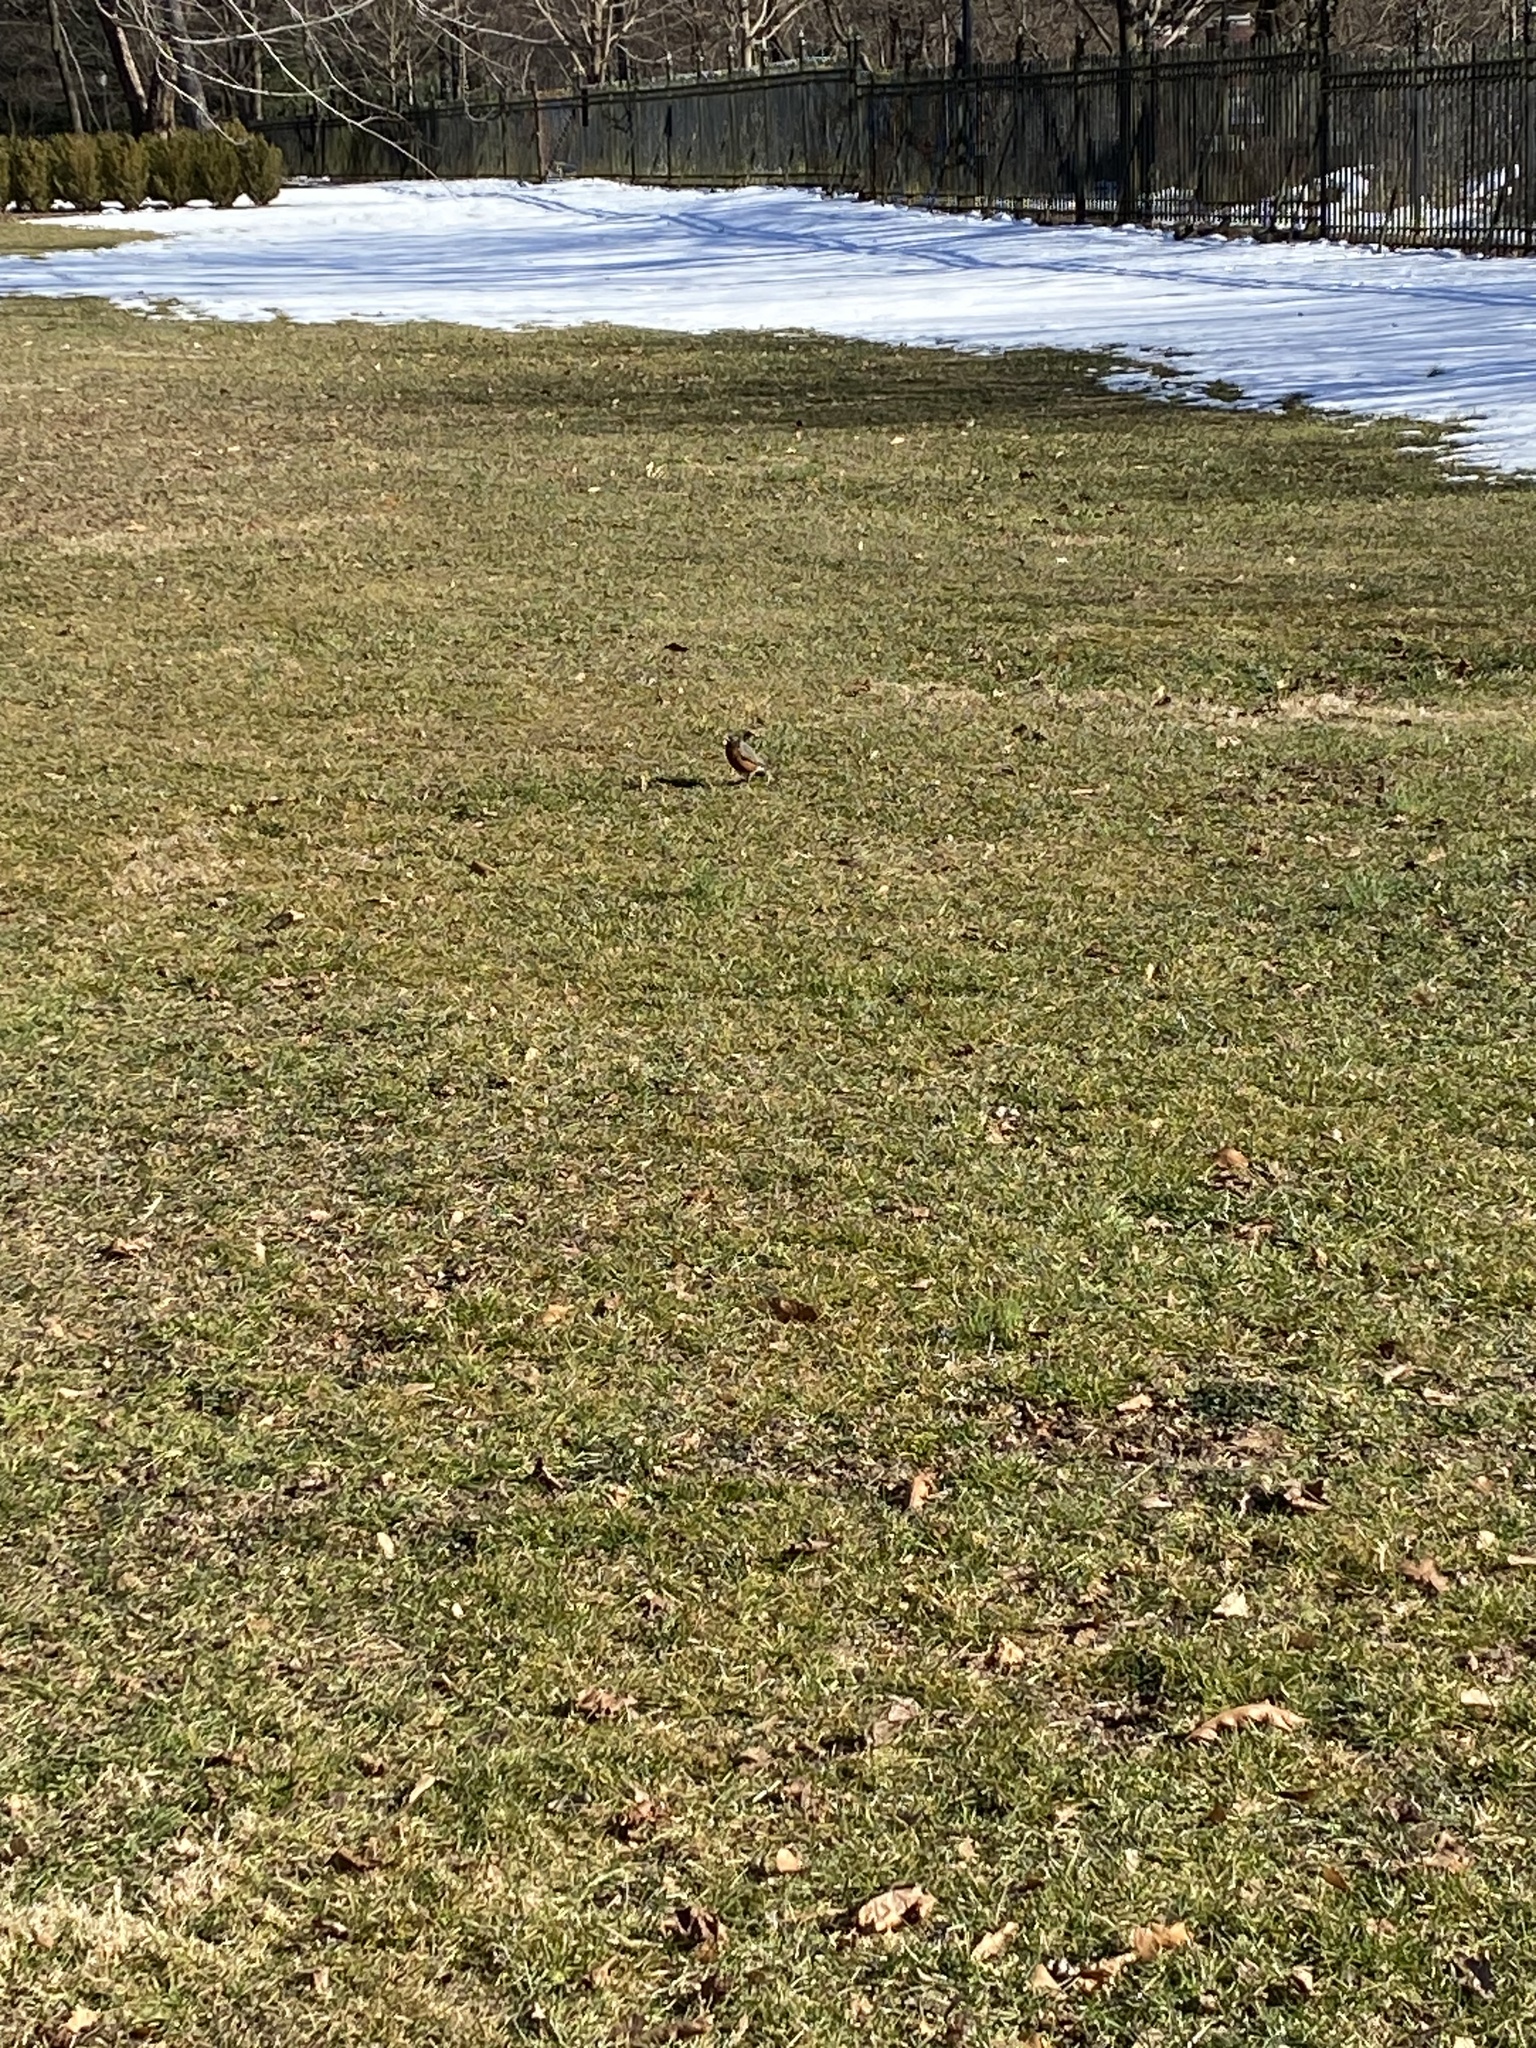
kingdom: Animalia
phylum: Chordata
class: Aves
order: Passeriformes
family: Turdidae
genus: Turdus
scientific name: Turdus migratorius
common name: American robin
